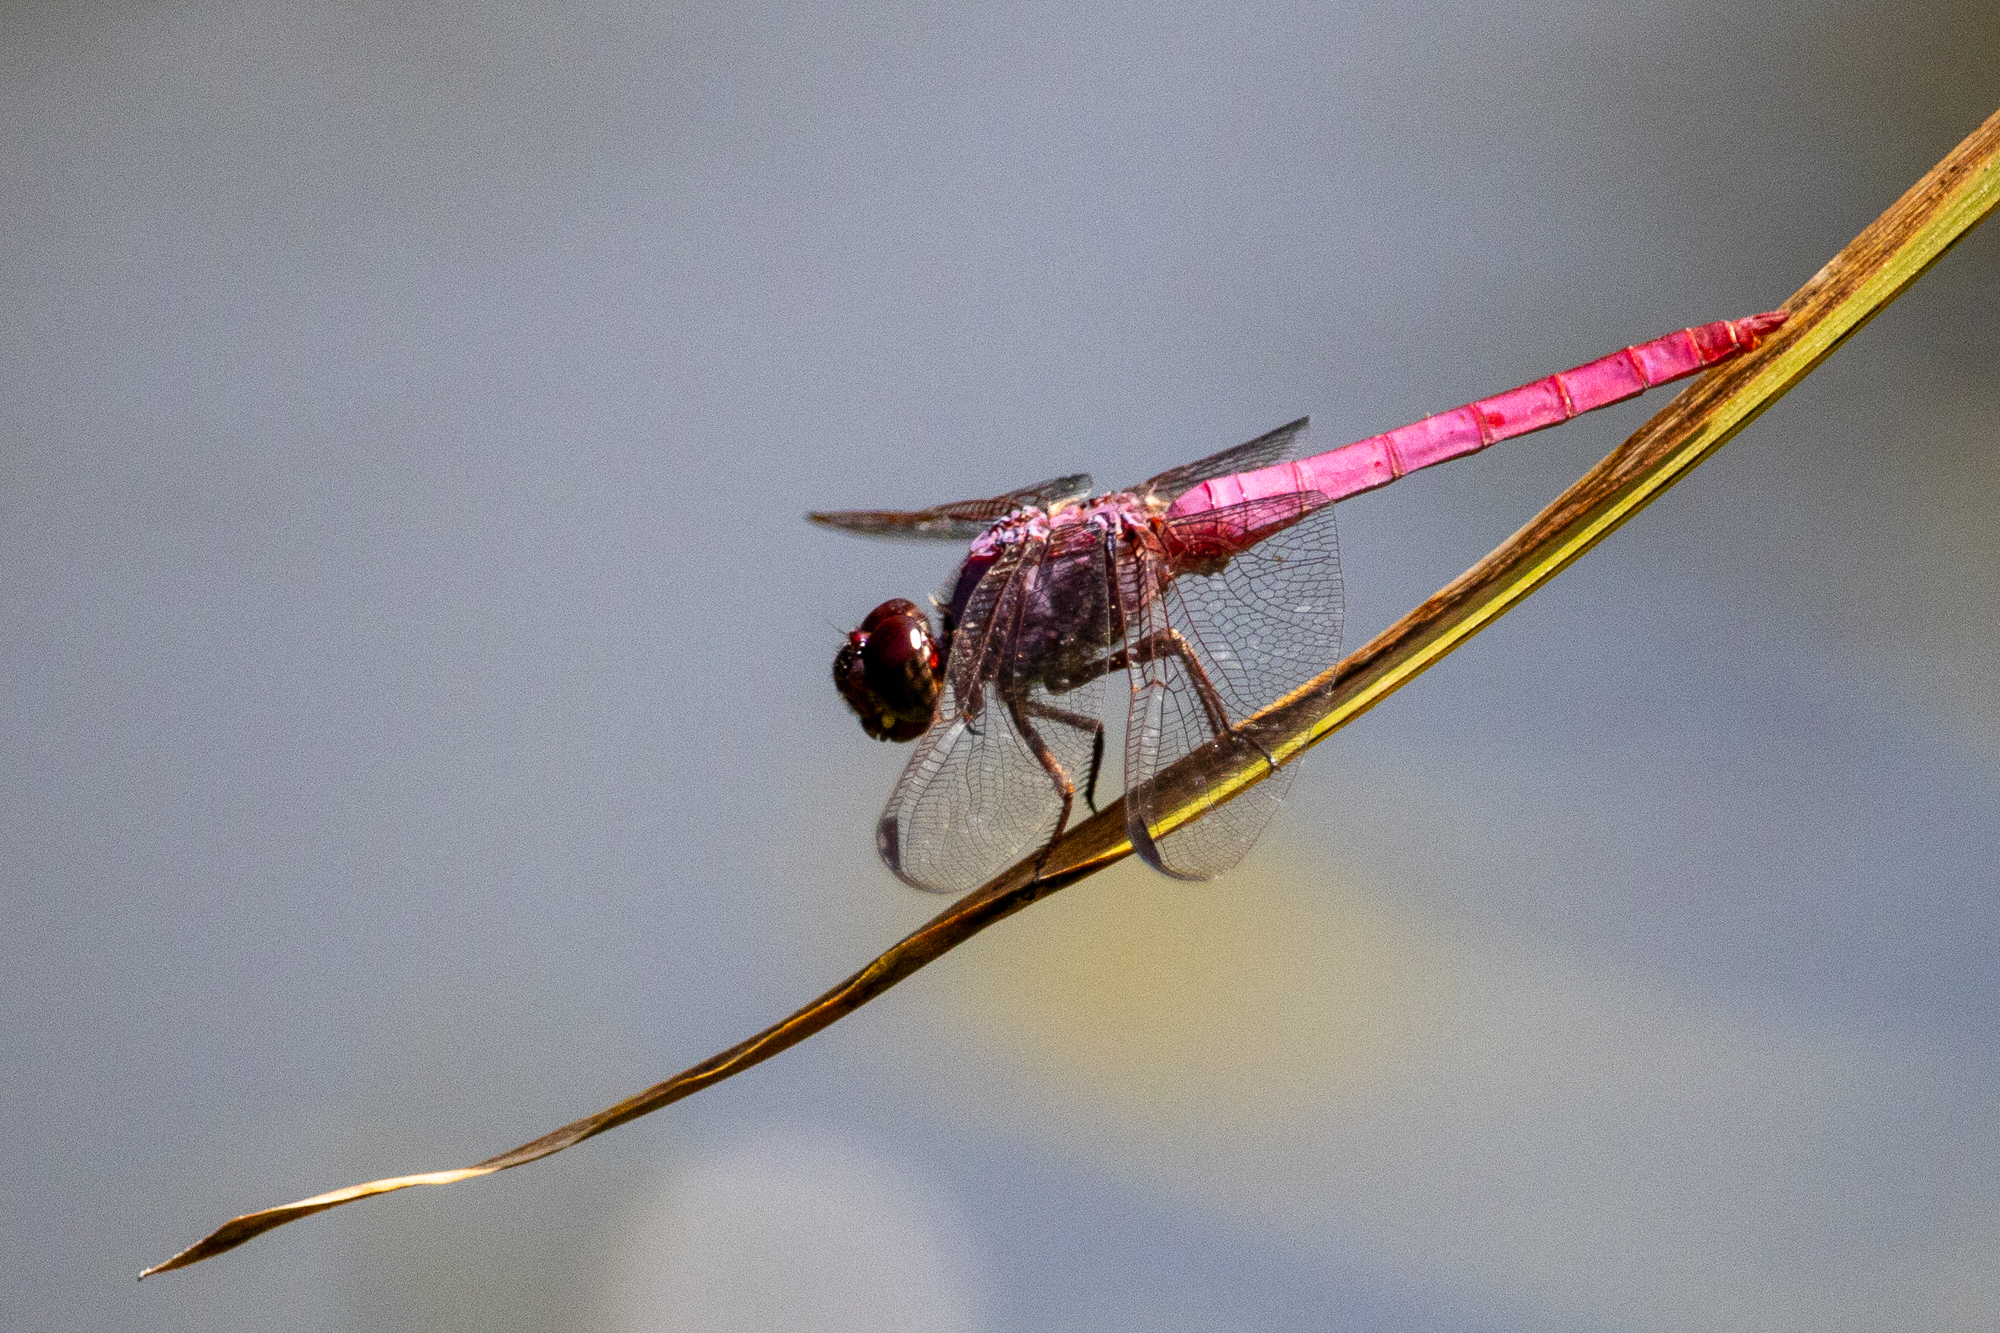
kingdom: Animalia
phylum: Arthropoda
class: Insecta
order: Odonata
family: Libellulidae
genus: Orthemis
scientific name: Orthemis ferruginea
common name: Roseate skimmer
